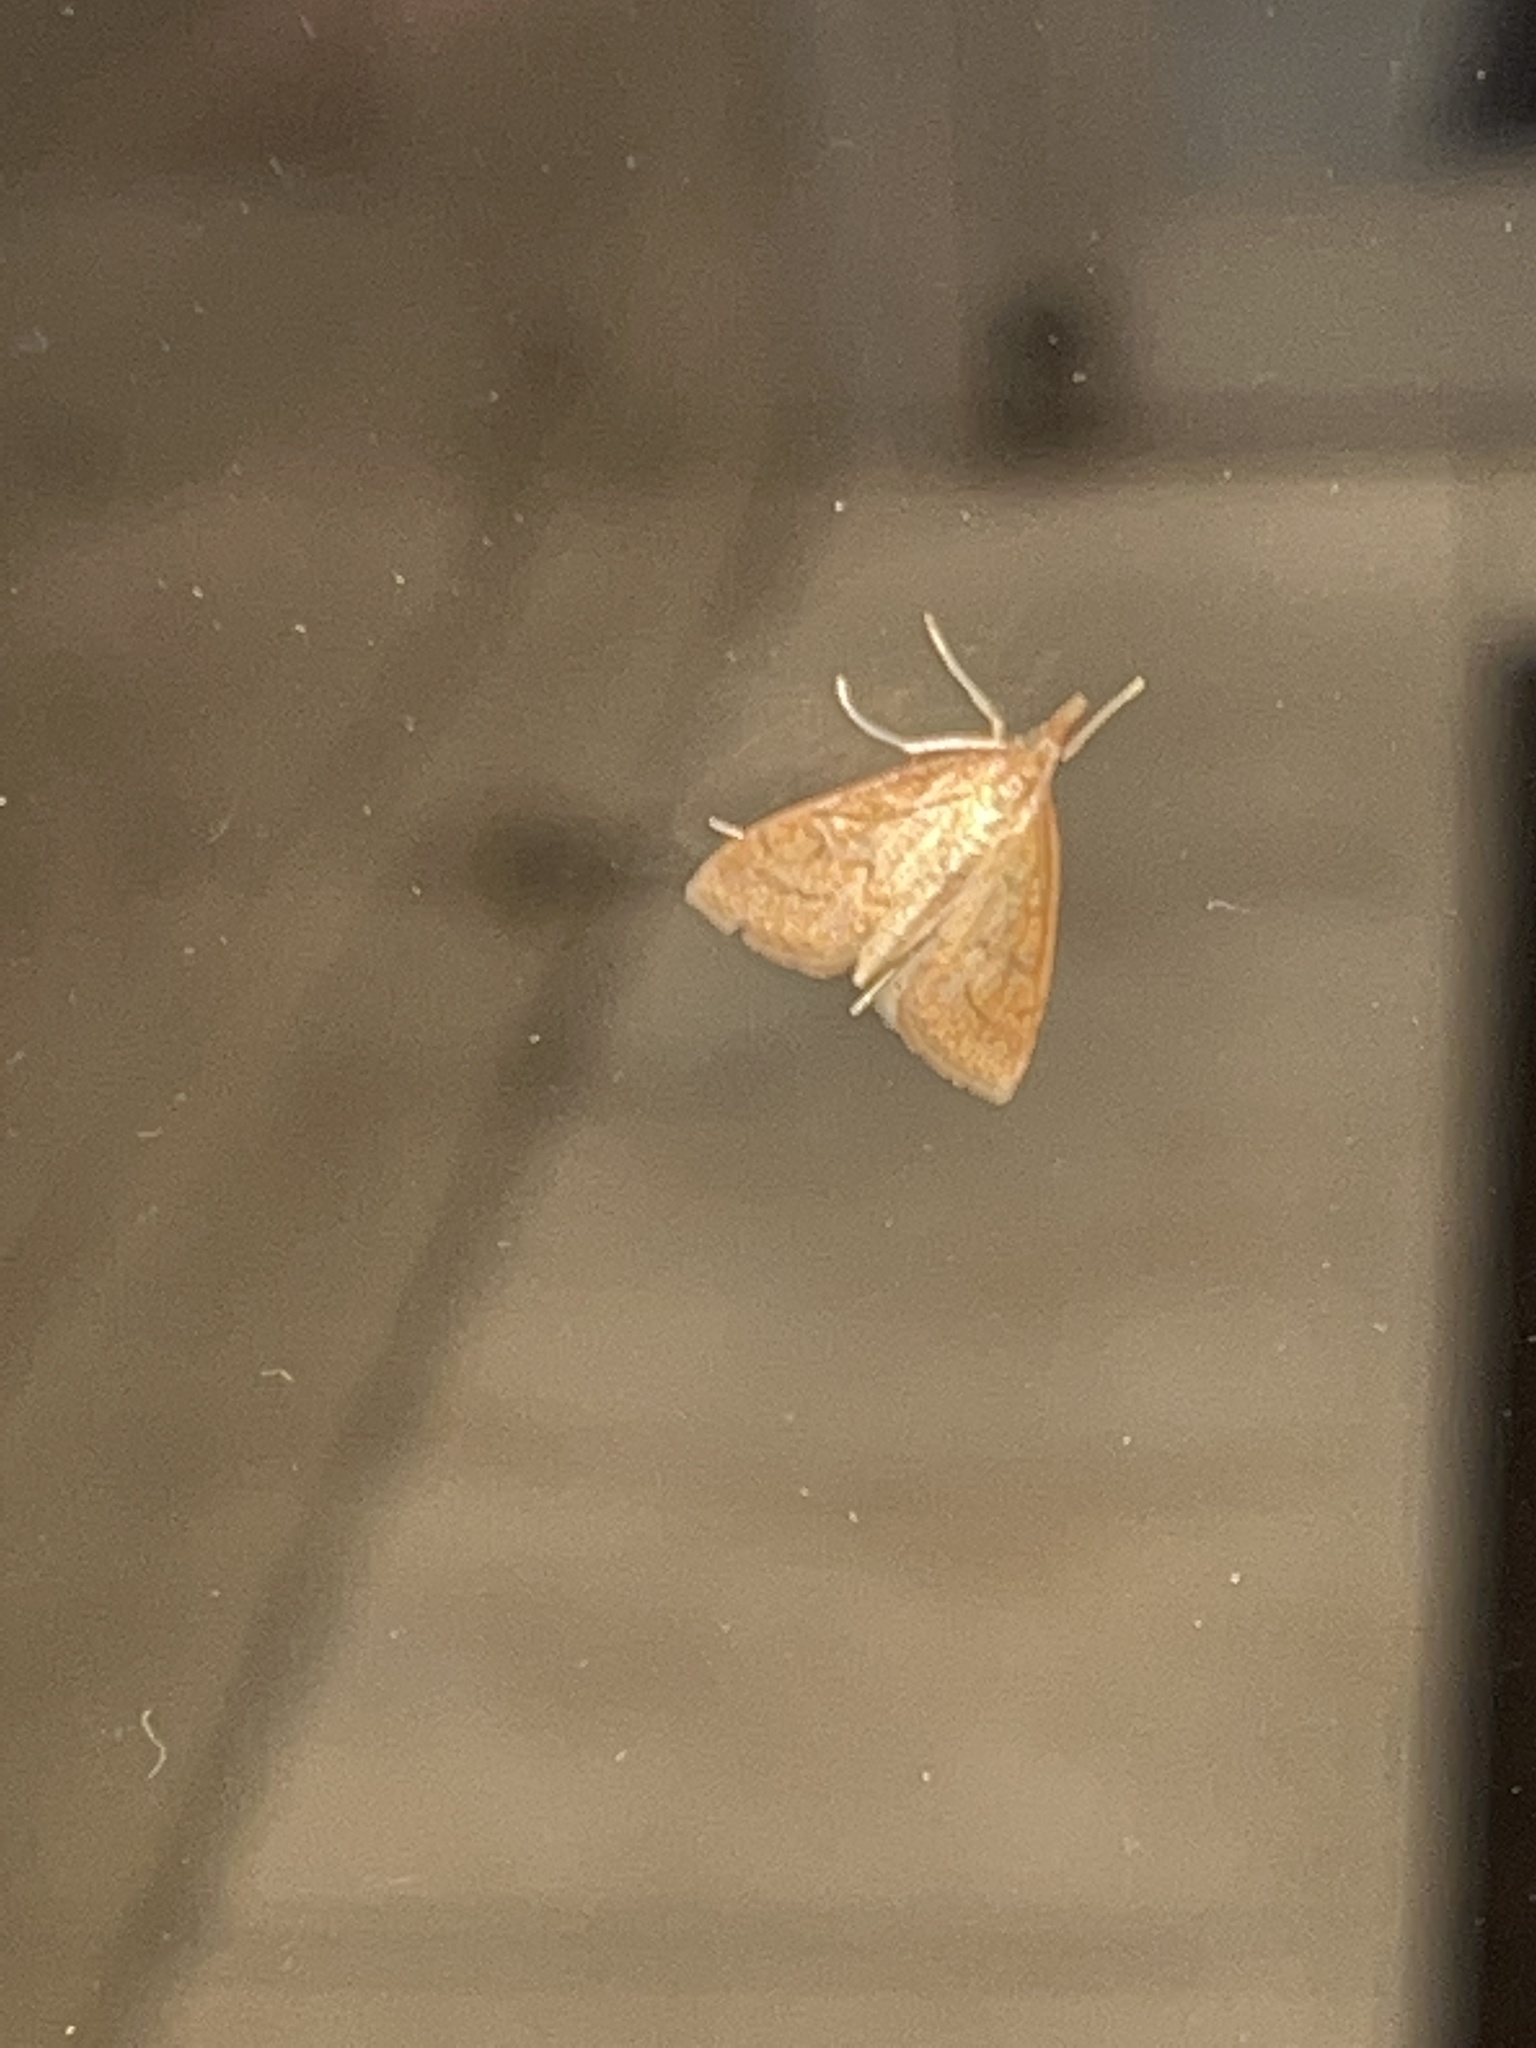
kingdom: Animalia
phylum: Arthropoda
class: Insecta
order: Lepidoptera
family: Crambidae
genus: Udea
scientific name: Udea rubigalis
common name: Celery leaftier moth
